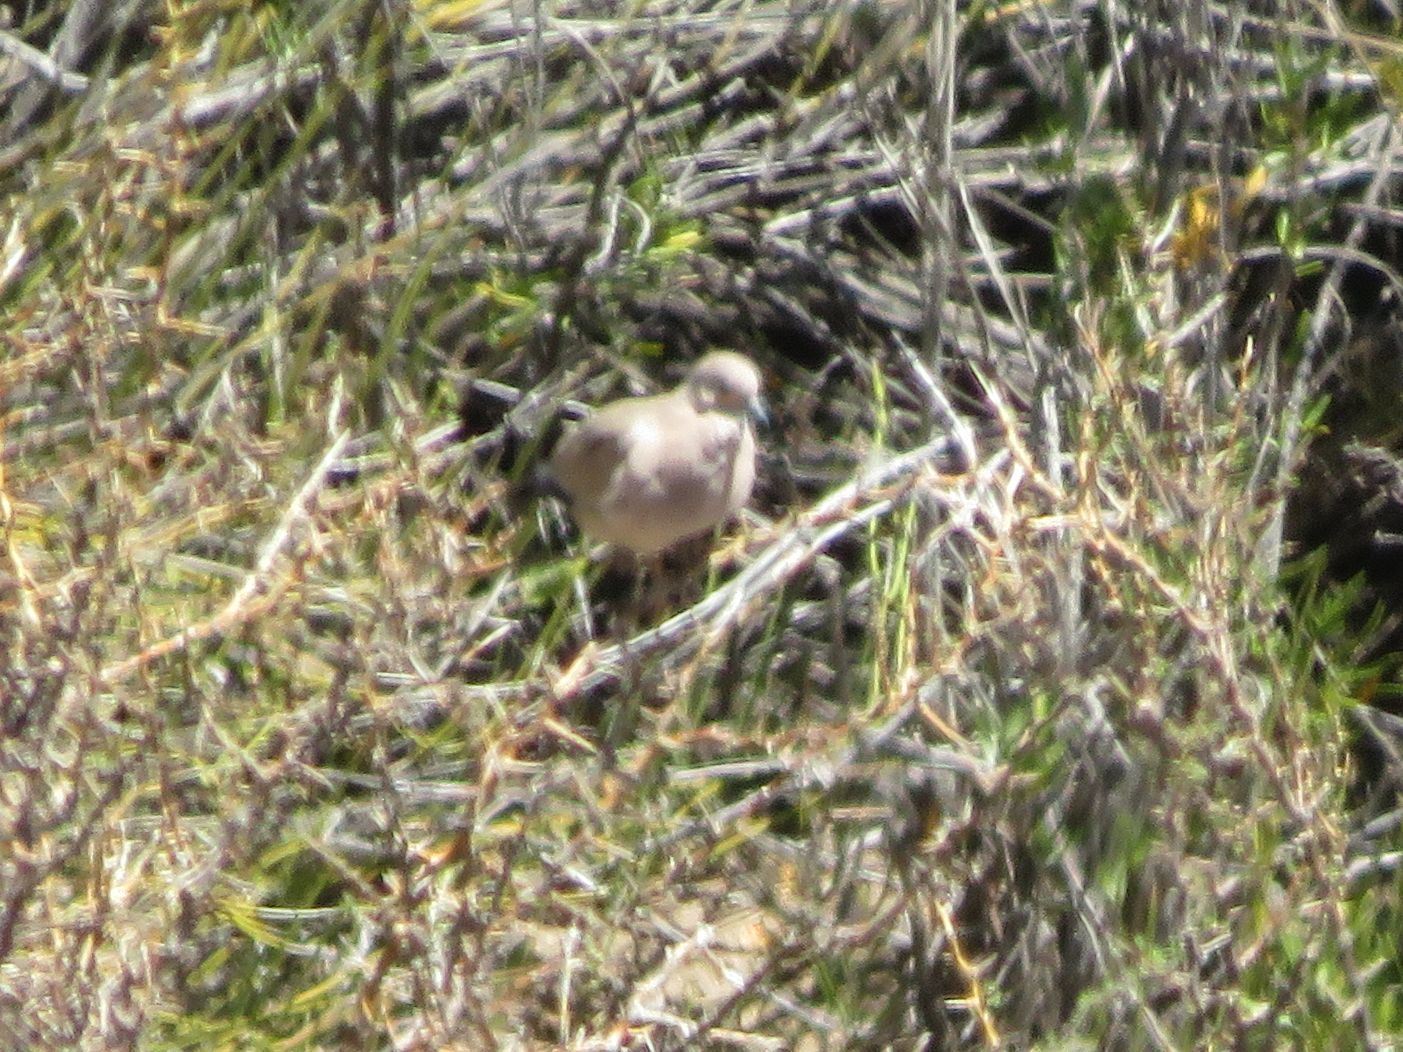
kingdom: Animalia
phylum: Chordata
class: Aves
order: Columbiformes
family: Columbidae
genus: Metriopelia
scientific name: Metriopelia melanoptera
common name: Black-winged ground dove
